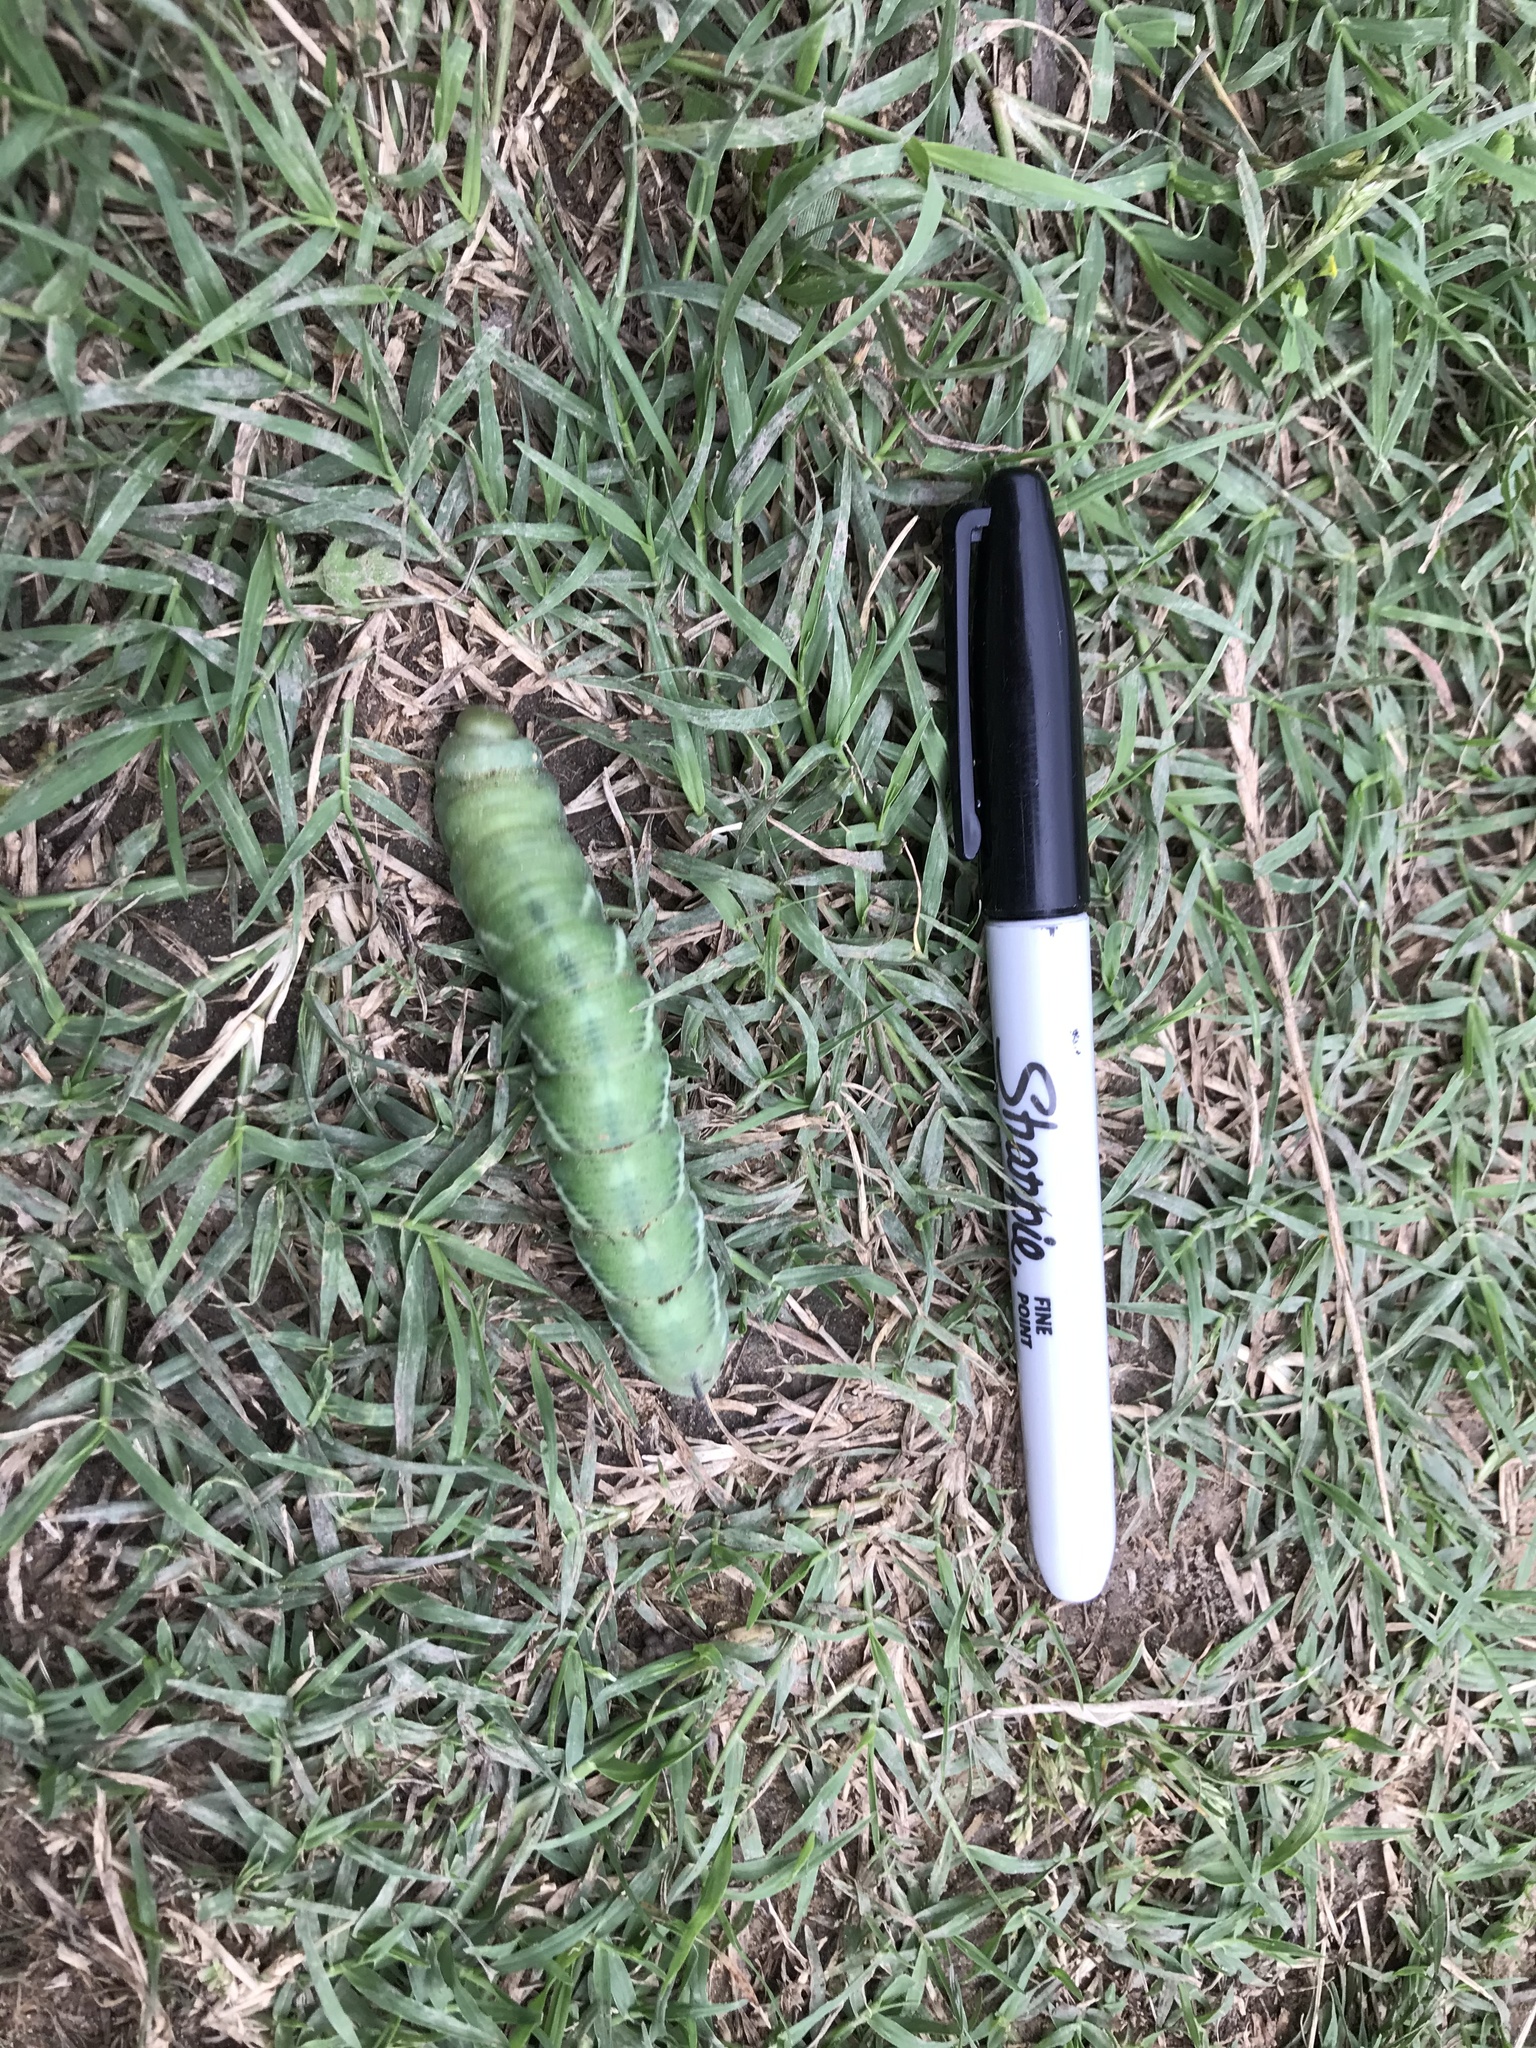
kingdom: Animalia
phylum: Arthropoda
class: Insecta
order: Lepidoptera
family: Sphingidae
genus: Manduca
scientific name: Manduca sexta
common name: Carolina sphinx
